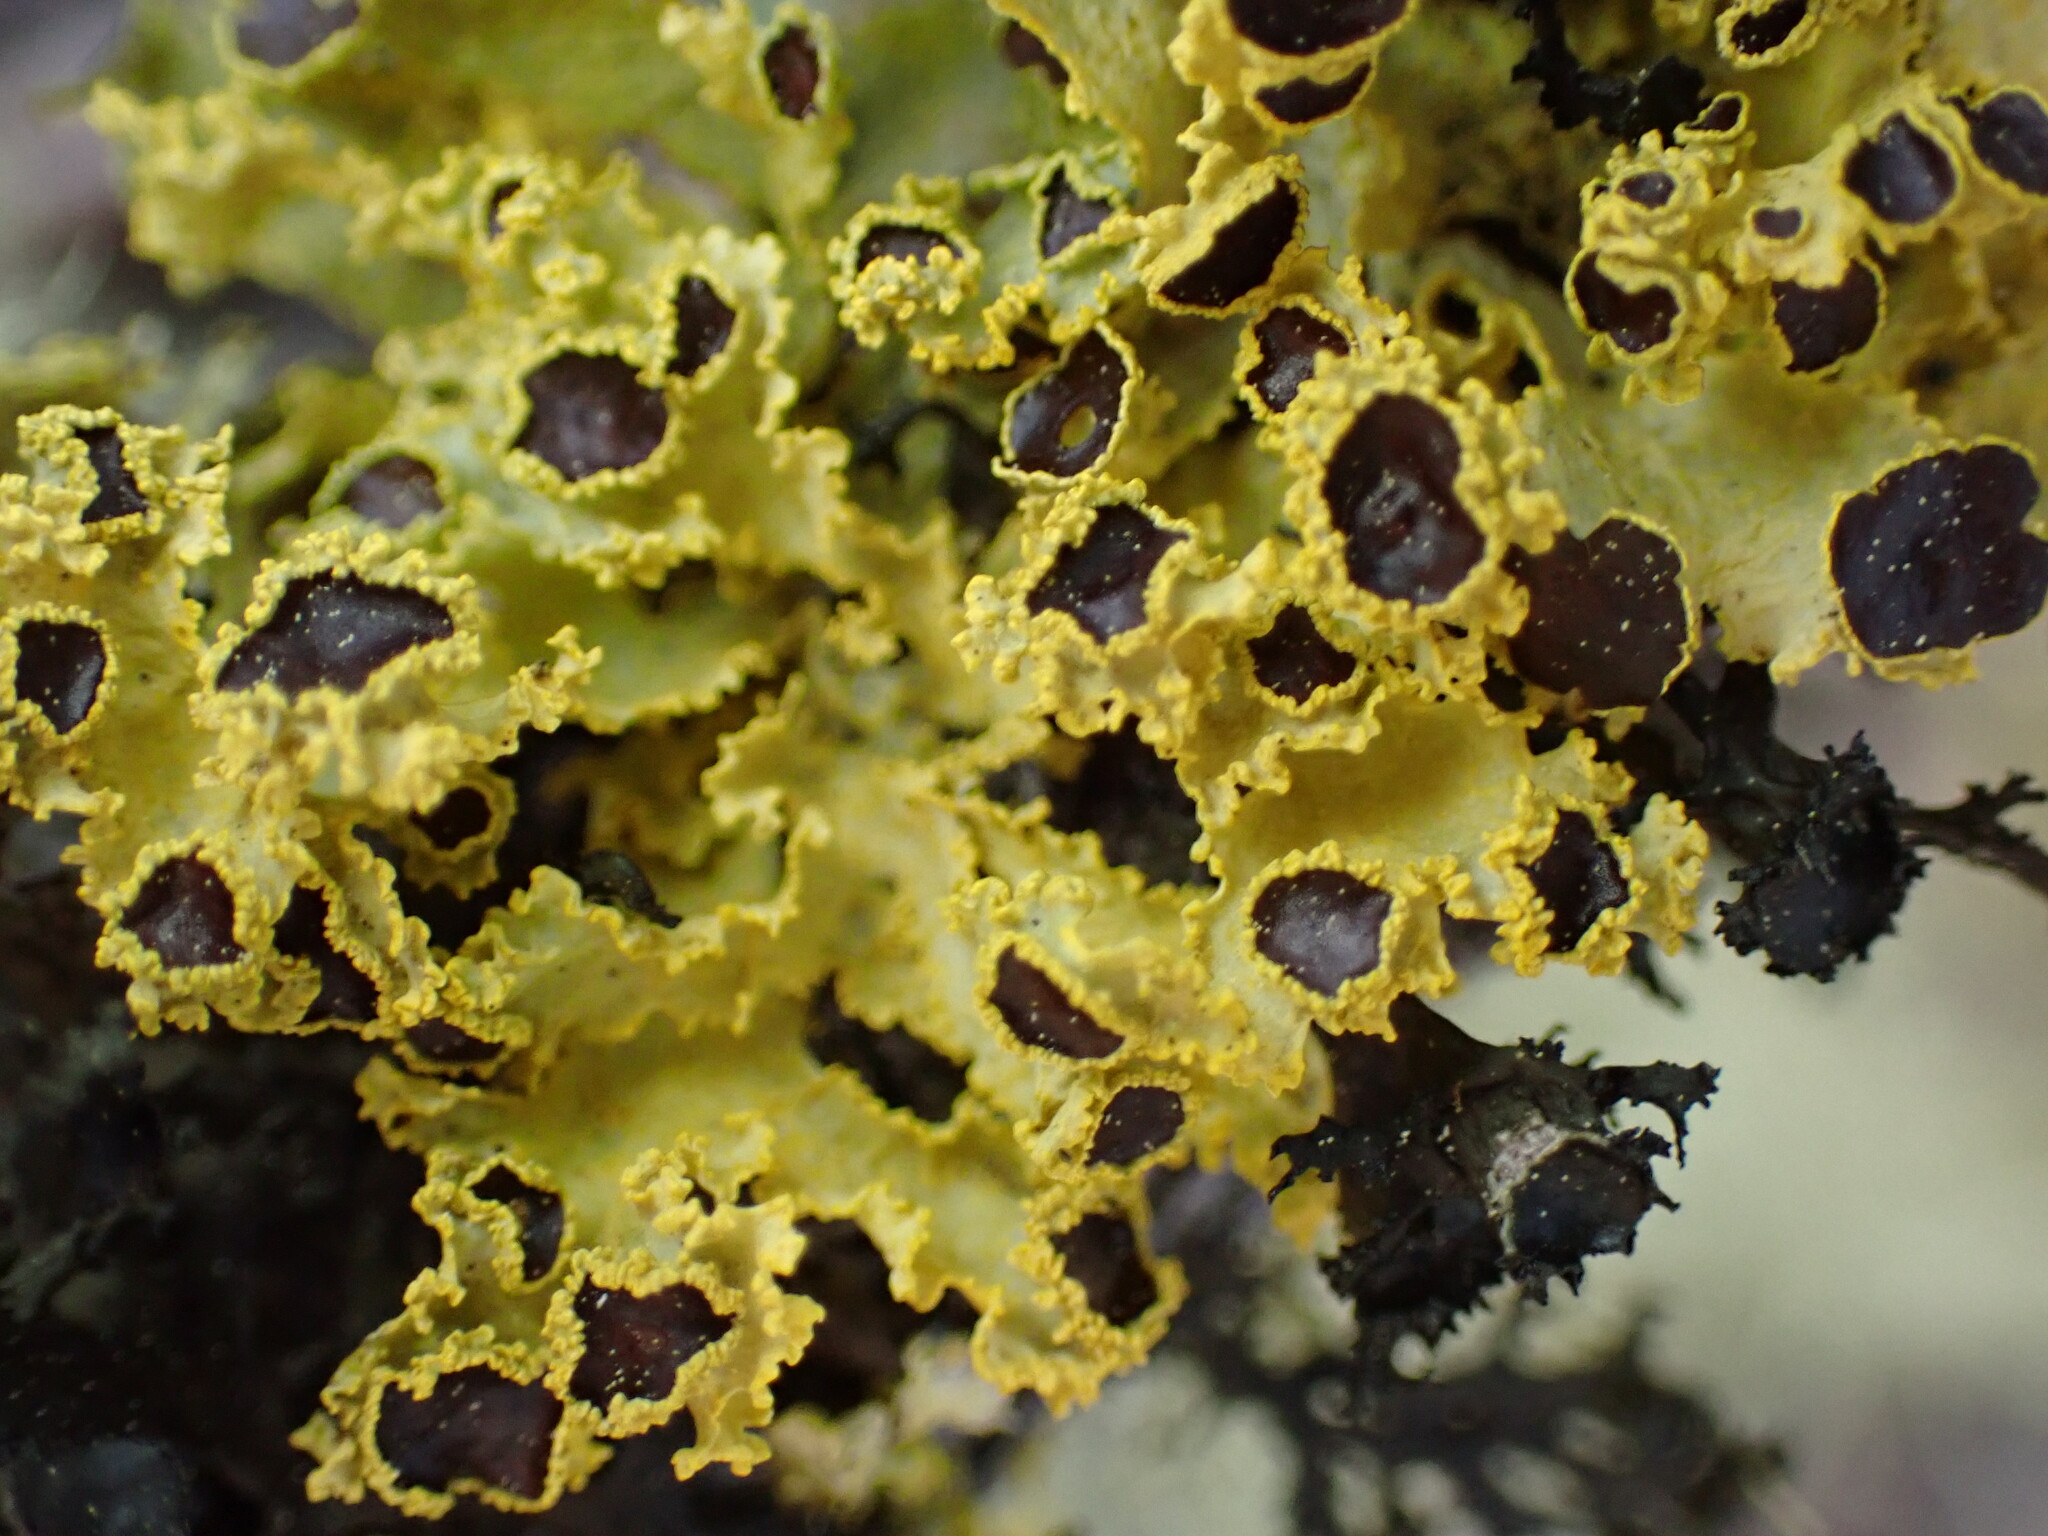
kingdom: Fungi
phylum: Ascomycota
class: Lecanoromycetes
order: Lecanorales
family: Parmeliaceae
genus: Vulpicida
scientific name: Vulpicida canadensis
